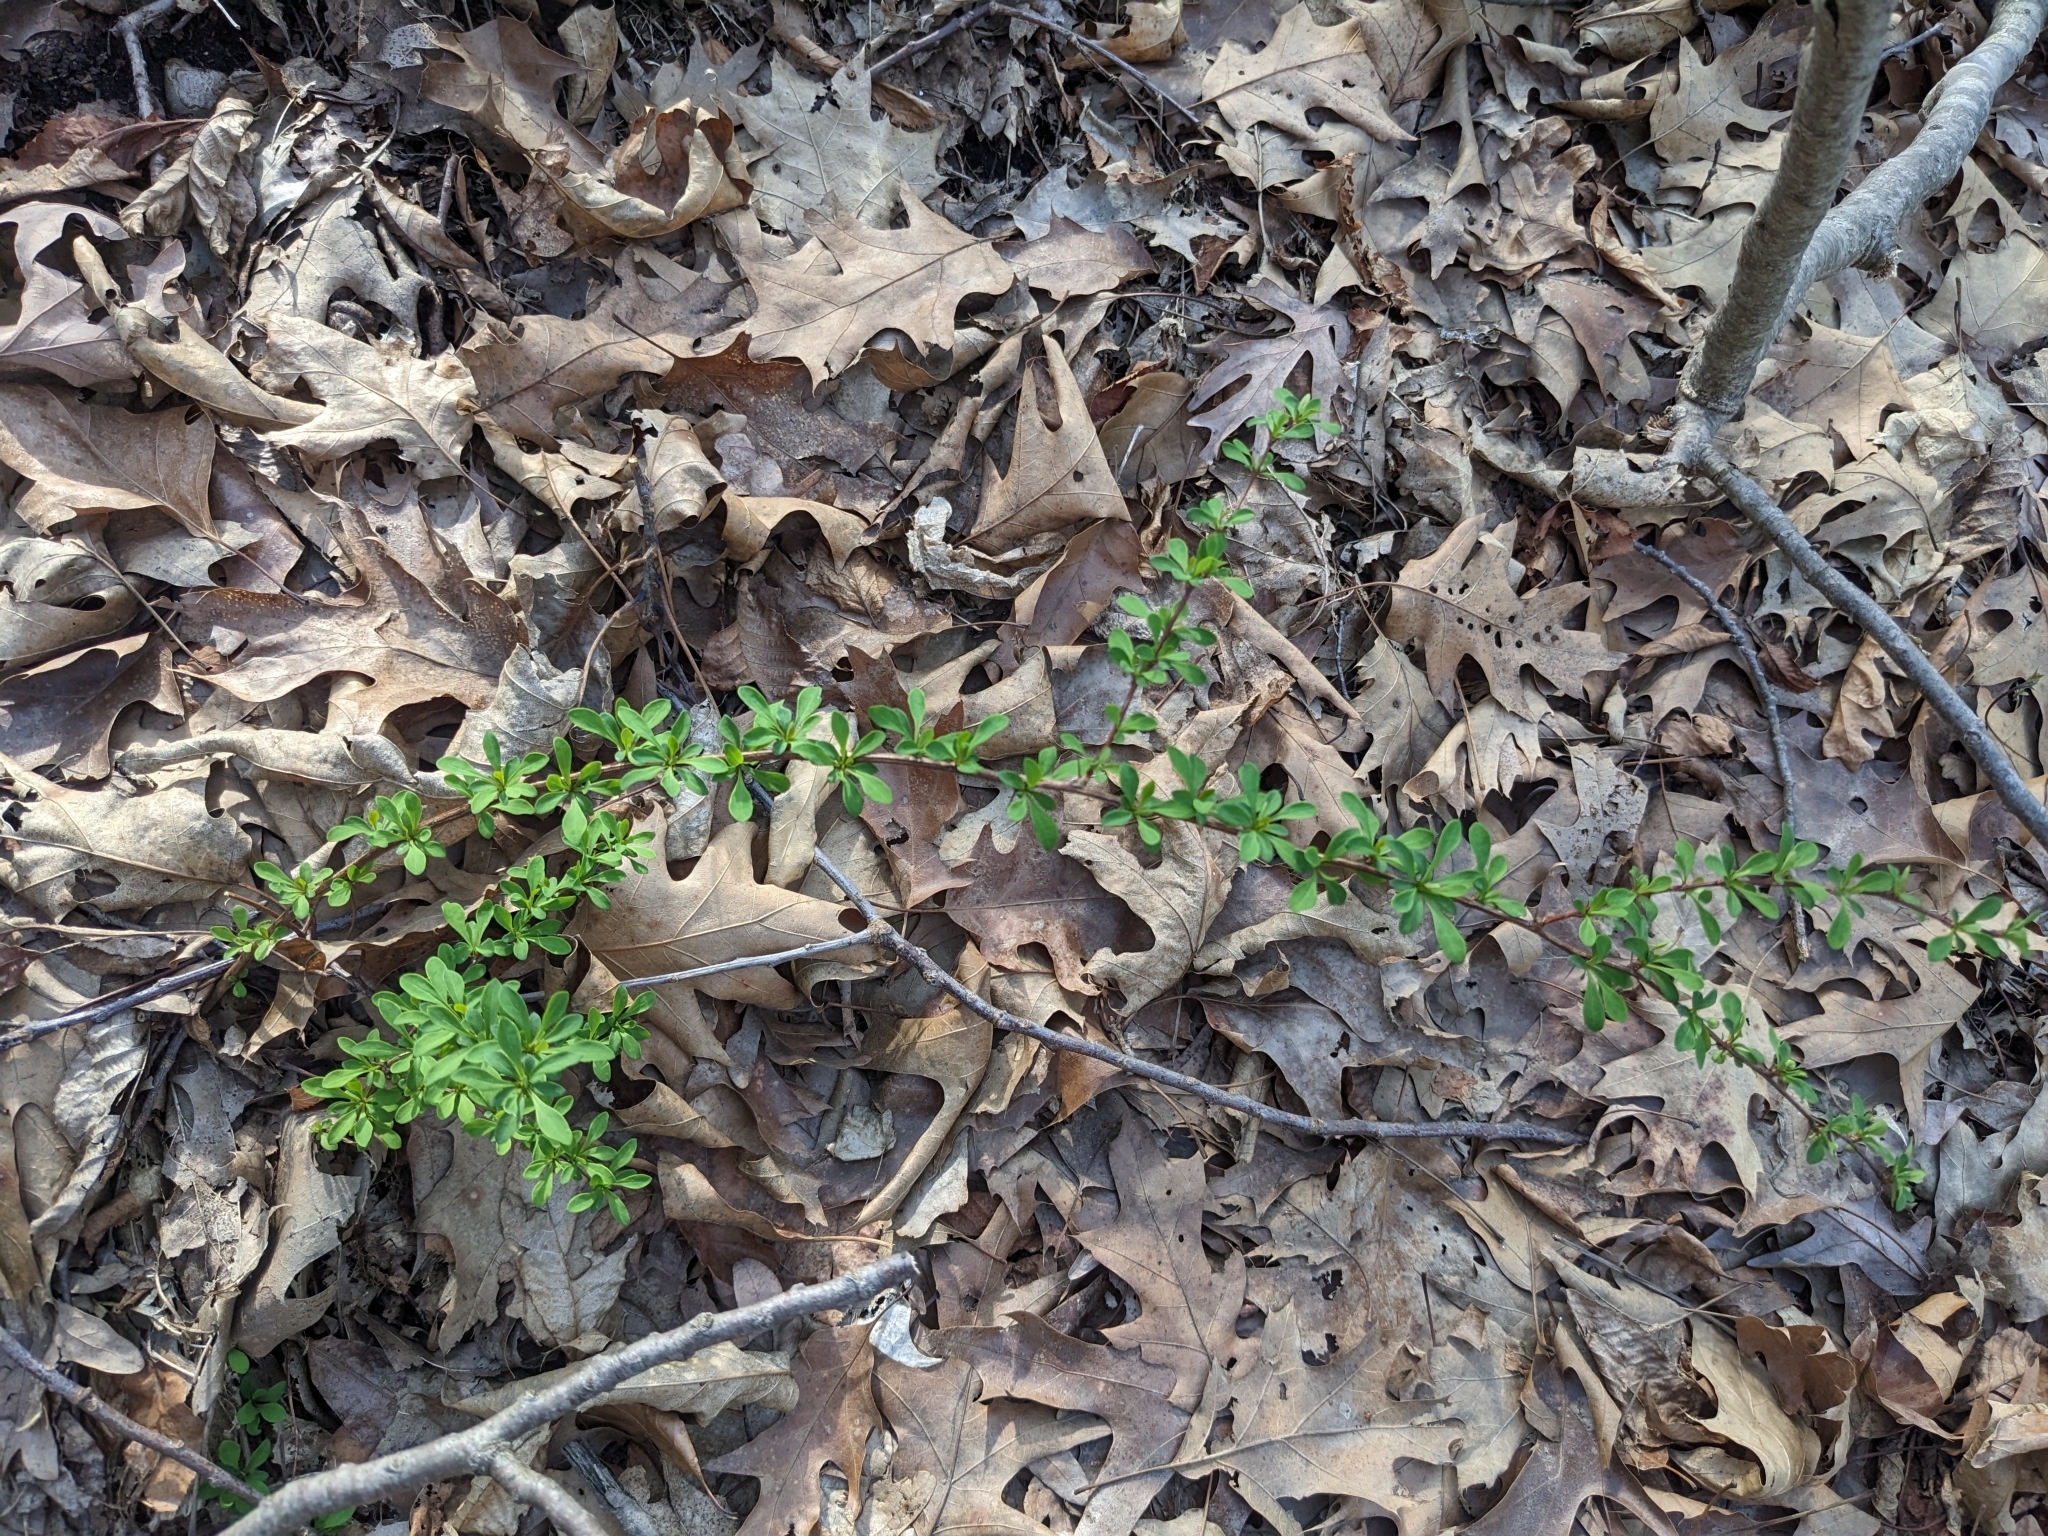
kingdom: Plantae
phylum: Tracheophyta
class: Magnoliopsida
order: Ranunculales
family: Berberidaceae
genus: Berberis
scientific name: Berberis thunbergii
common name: Japanese barberry
